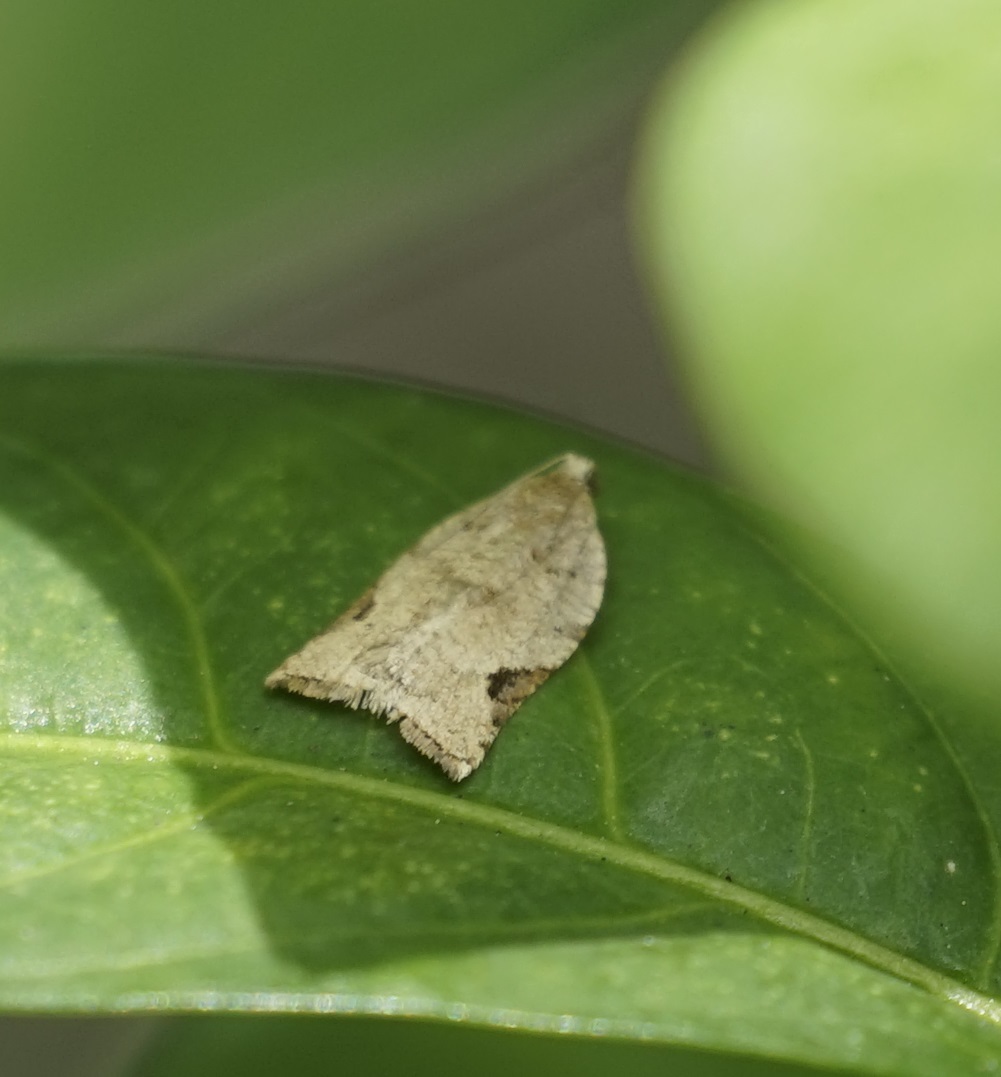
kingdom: Animalia
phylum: Arthropoda
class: Insecta
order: Lepidoptera
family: Tortricidae
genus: Meritastis
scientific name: Meritastis ursina
